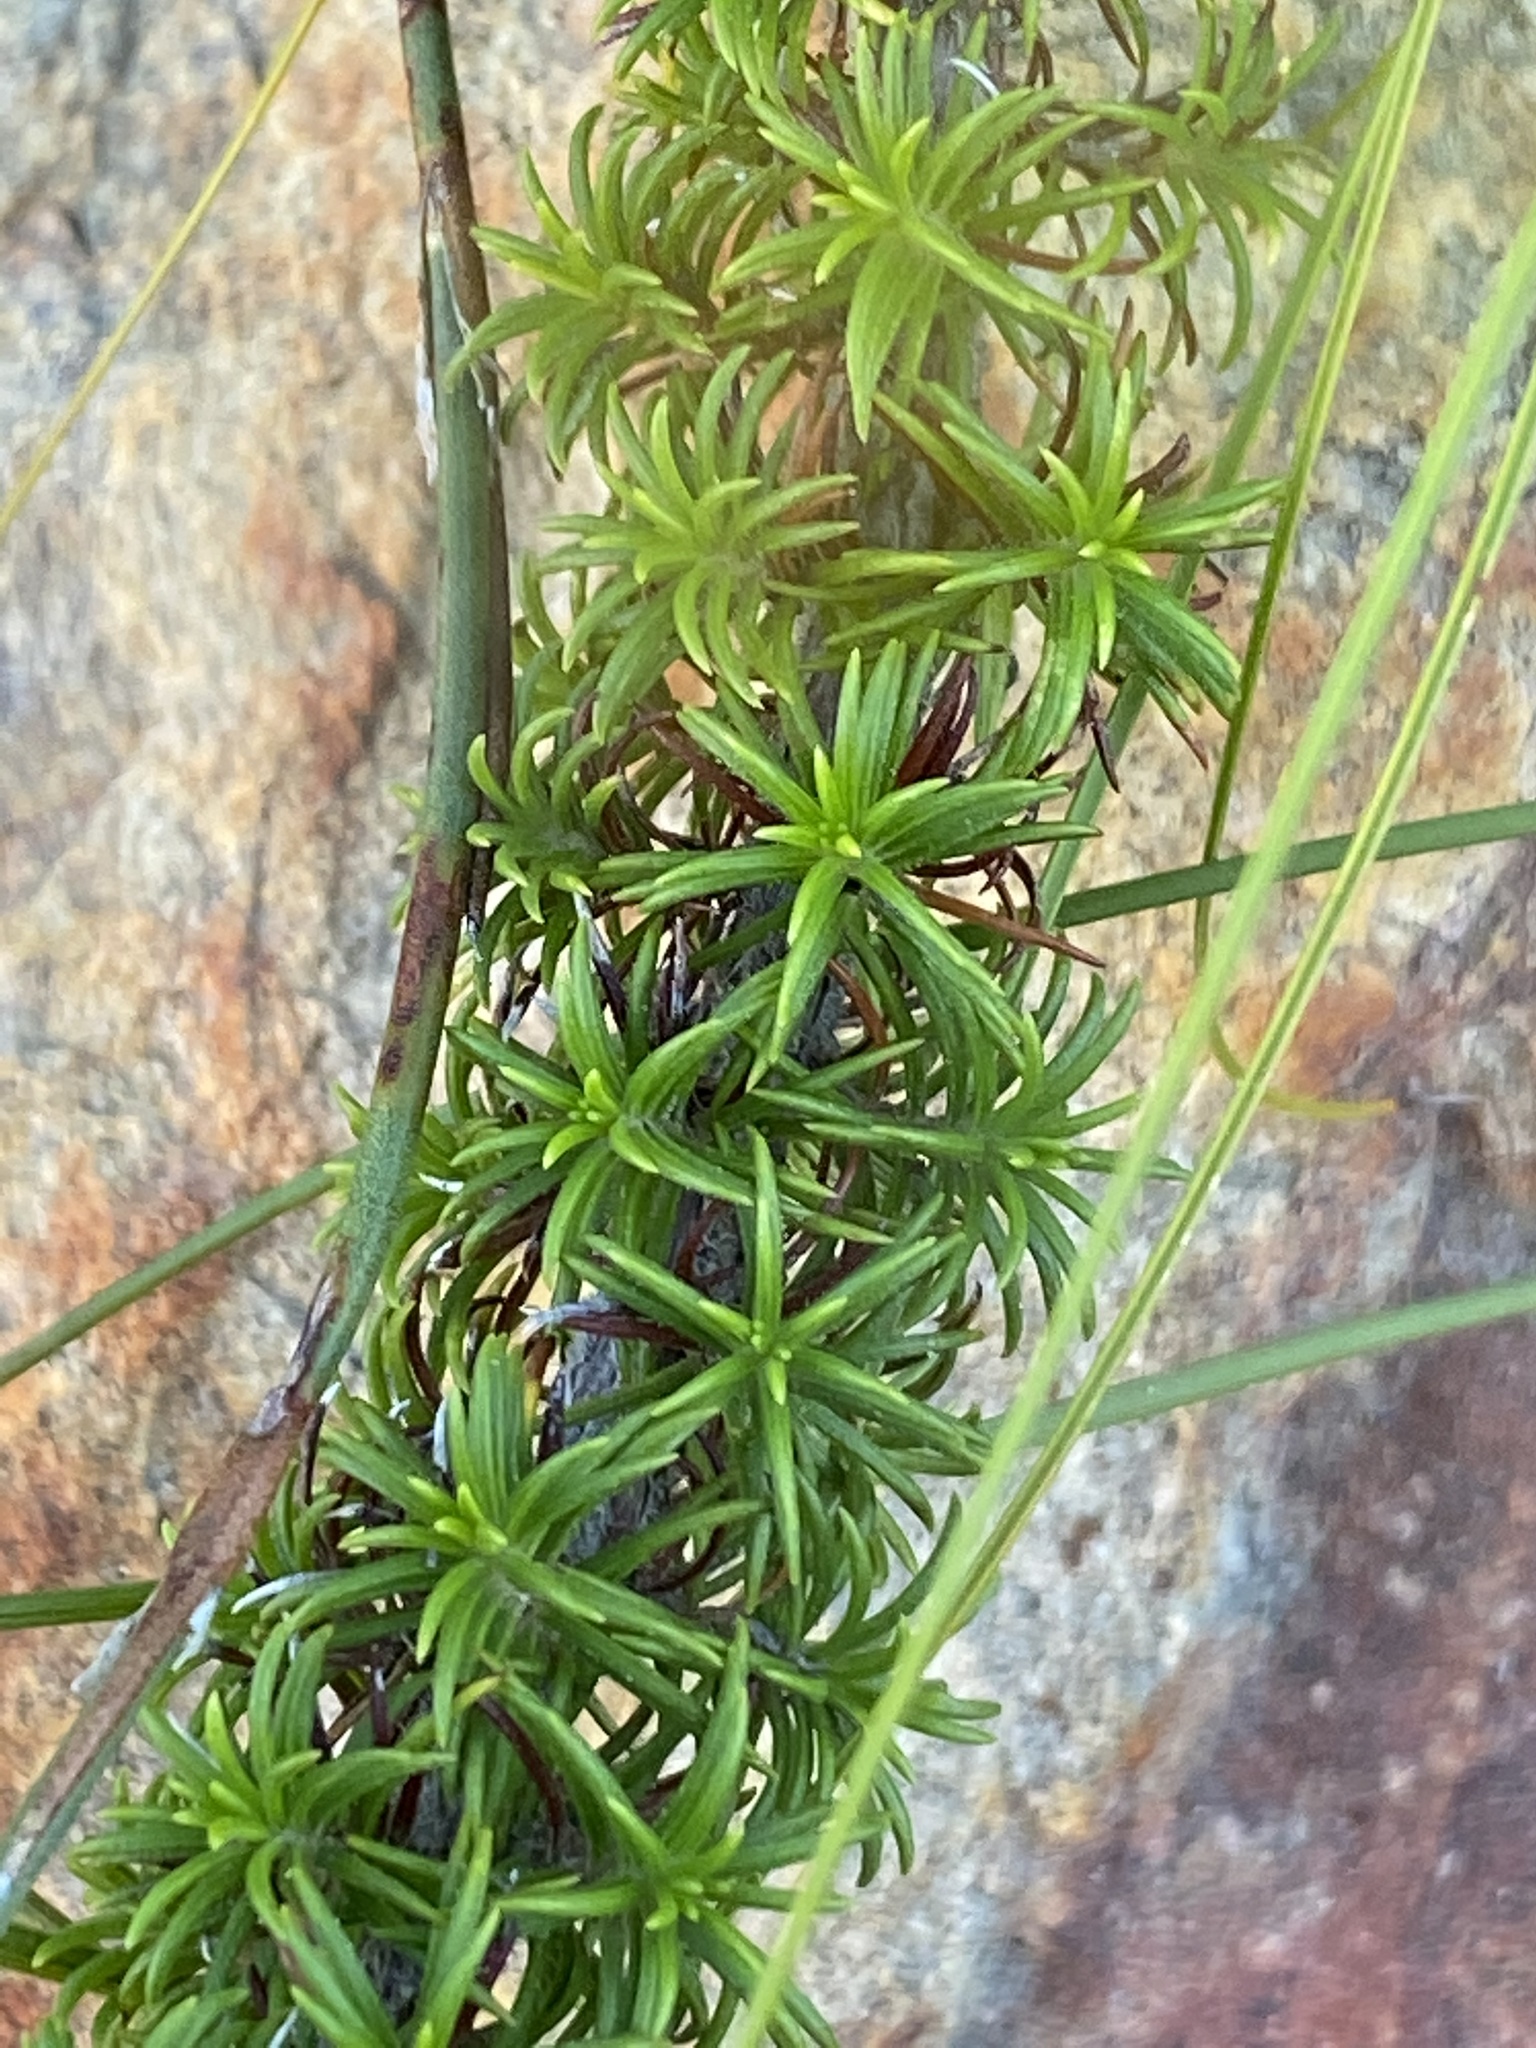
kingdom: Plantae
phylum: Tracheophyta
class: Magnoliopsida
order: Ericales
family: Ericaceae
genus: Erica
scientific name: Erica coccinea
